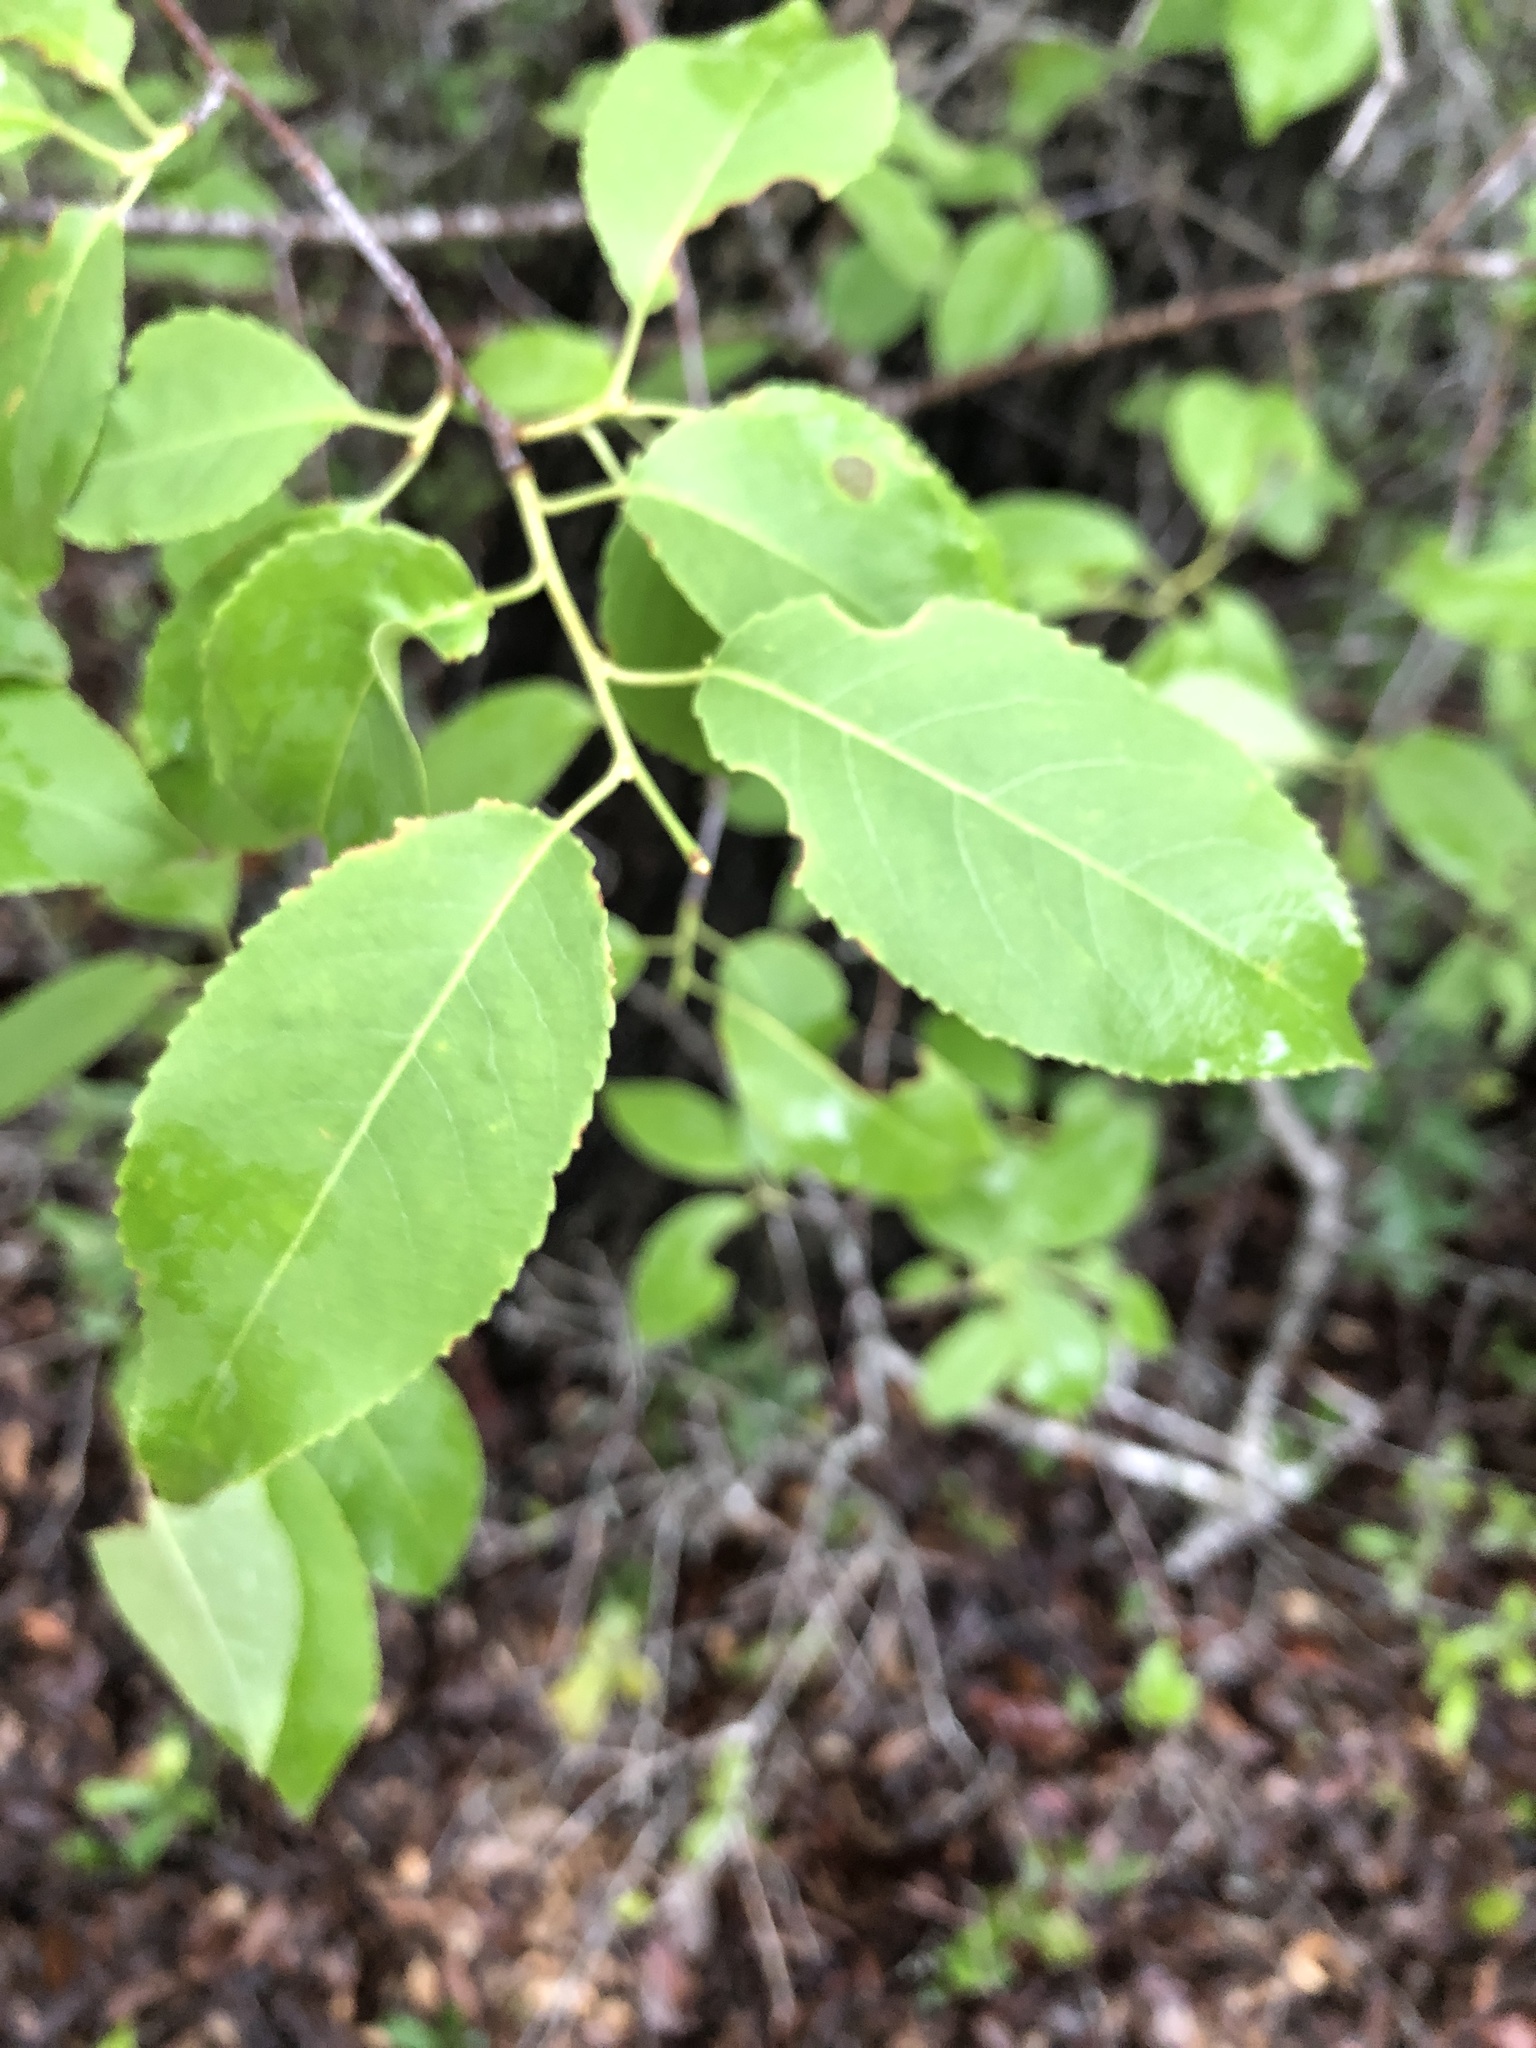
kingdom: Plantae
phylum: Tracheophyta
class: Magnoliopsida
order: Rosales
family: Rosaceae
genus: Prunus
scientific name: Prunus serotina
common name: Black cherry
